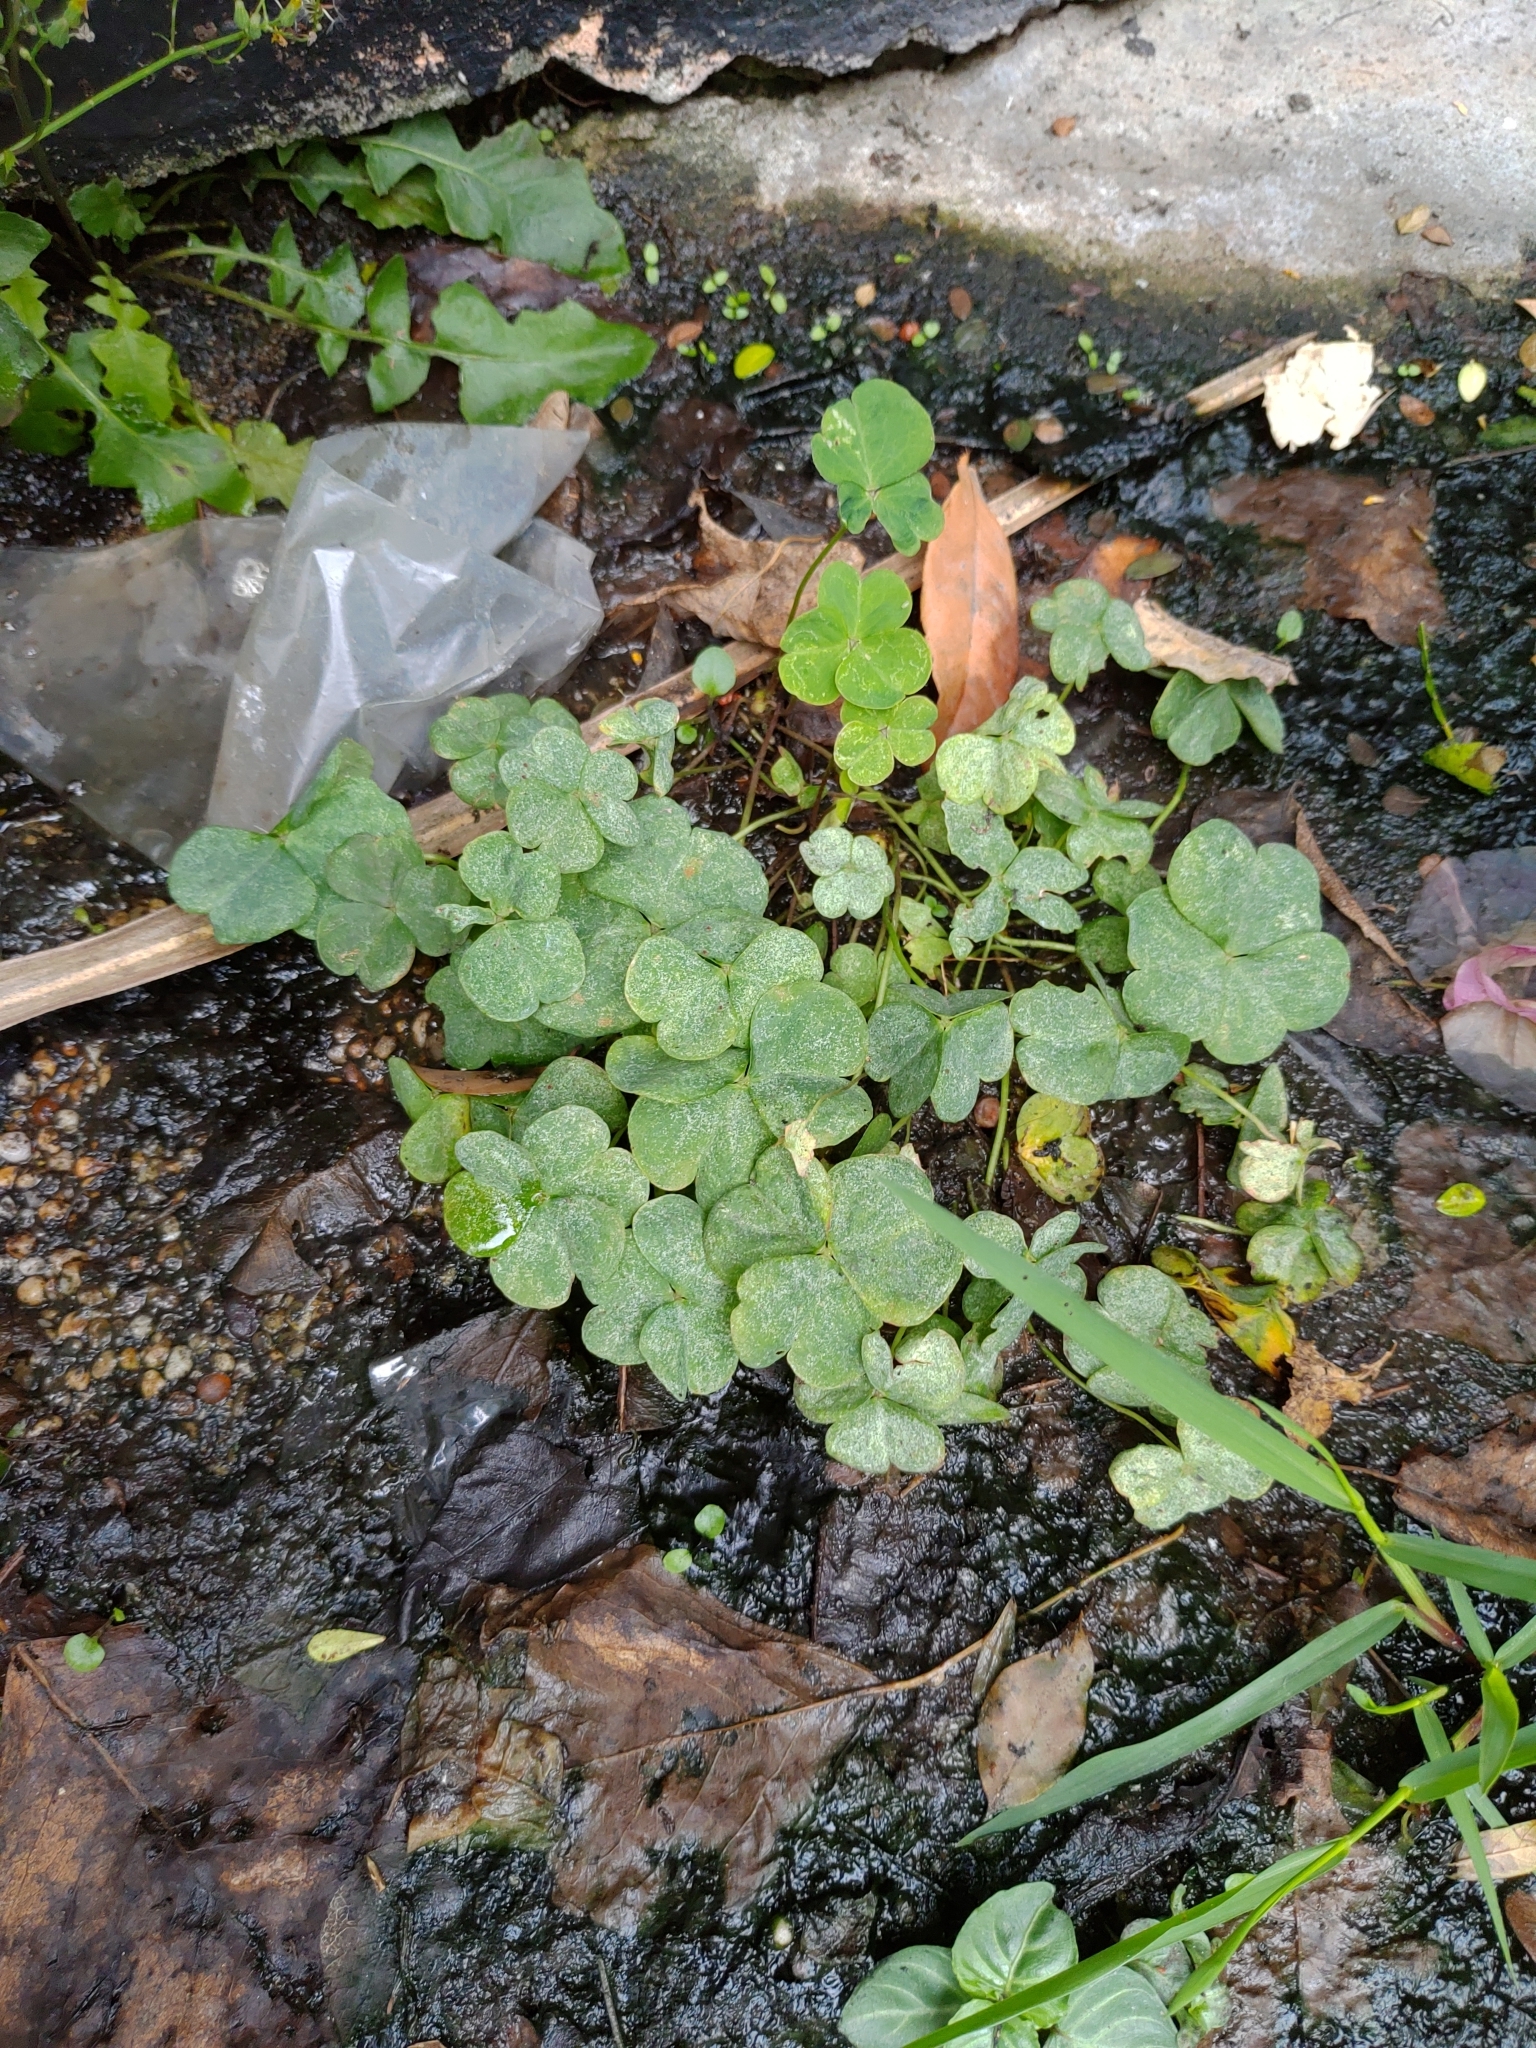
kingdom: Plantae
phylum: Tracheophyta
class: Magnoliopsida
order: Oxalidales
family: Oxalidaceae
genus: Oxalis
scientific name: Oxalis debilis
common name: Large-flowered pink-sorrel
